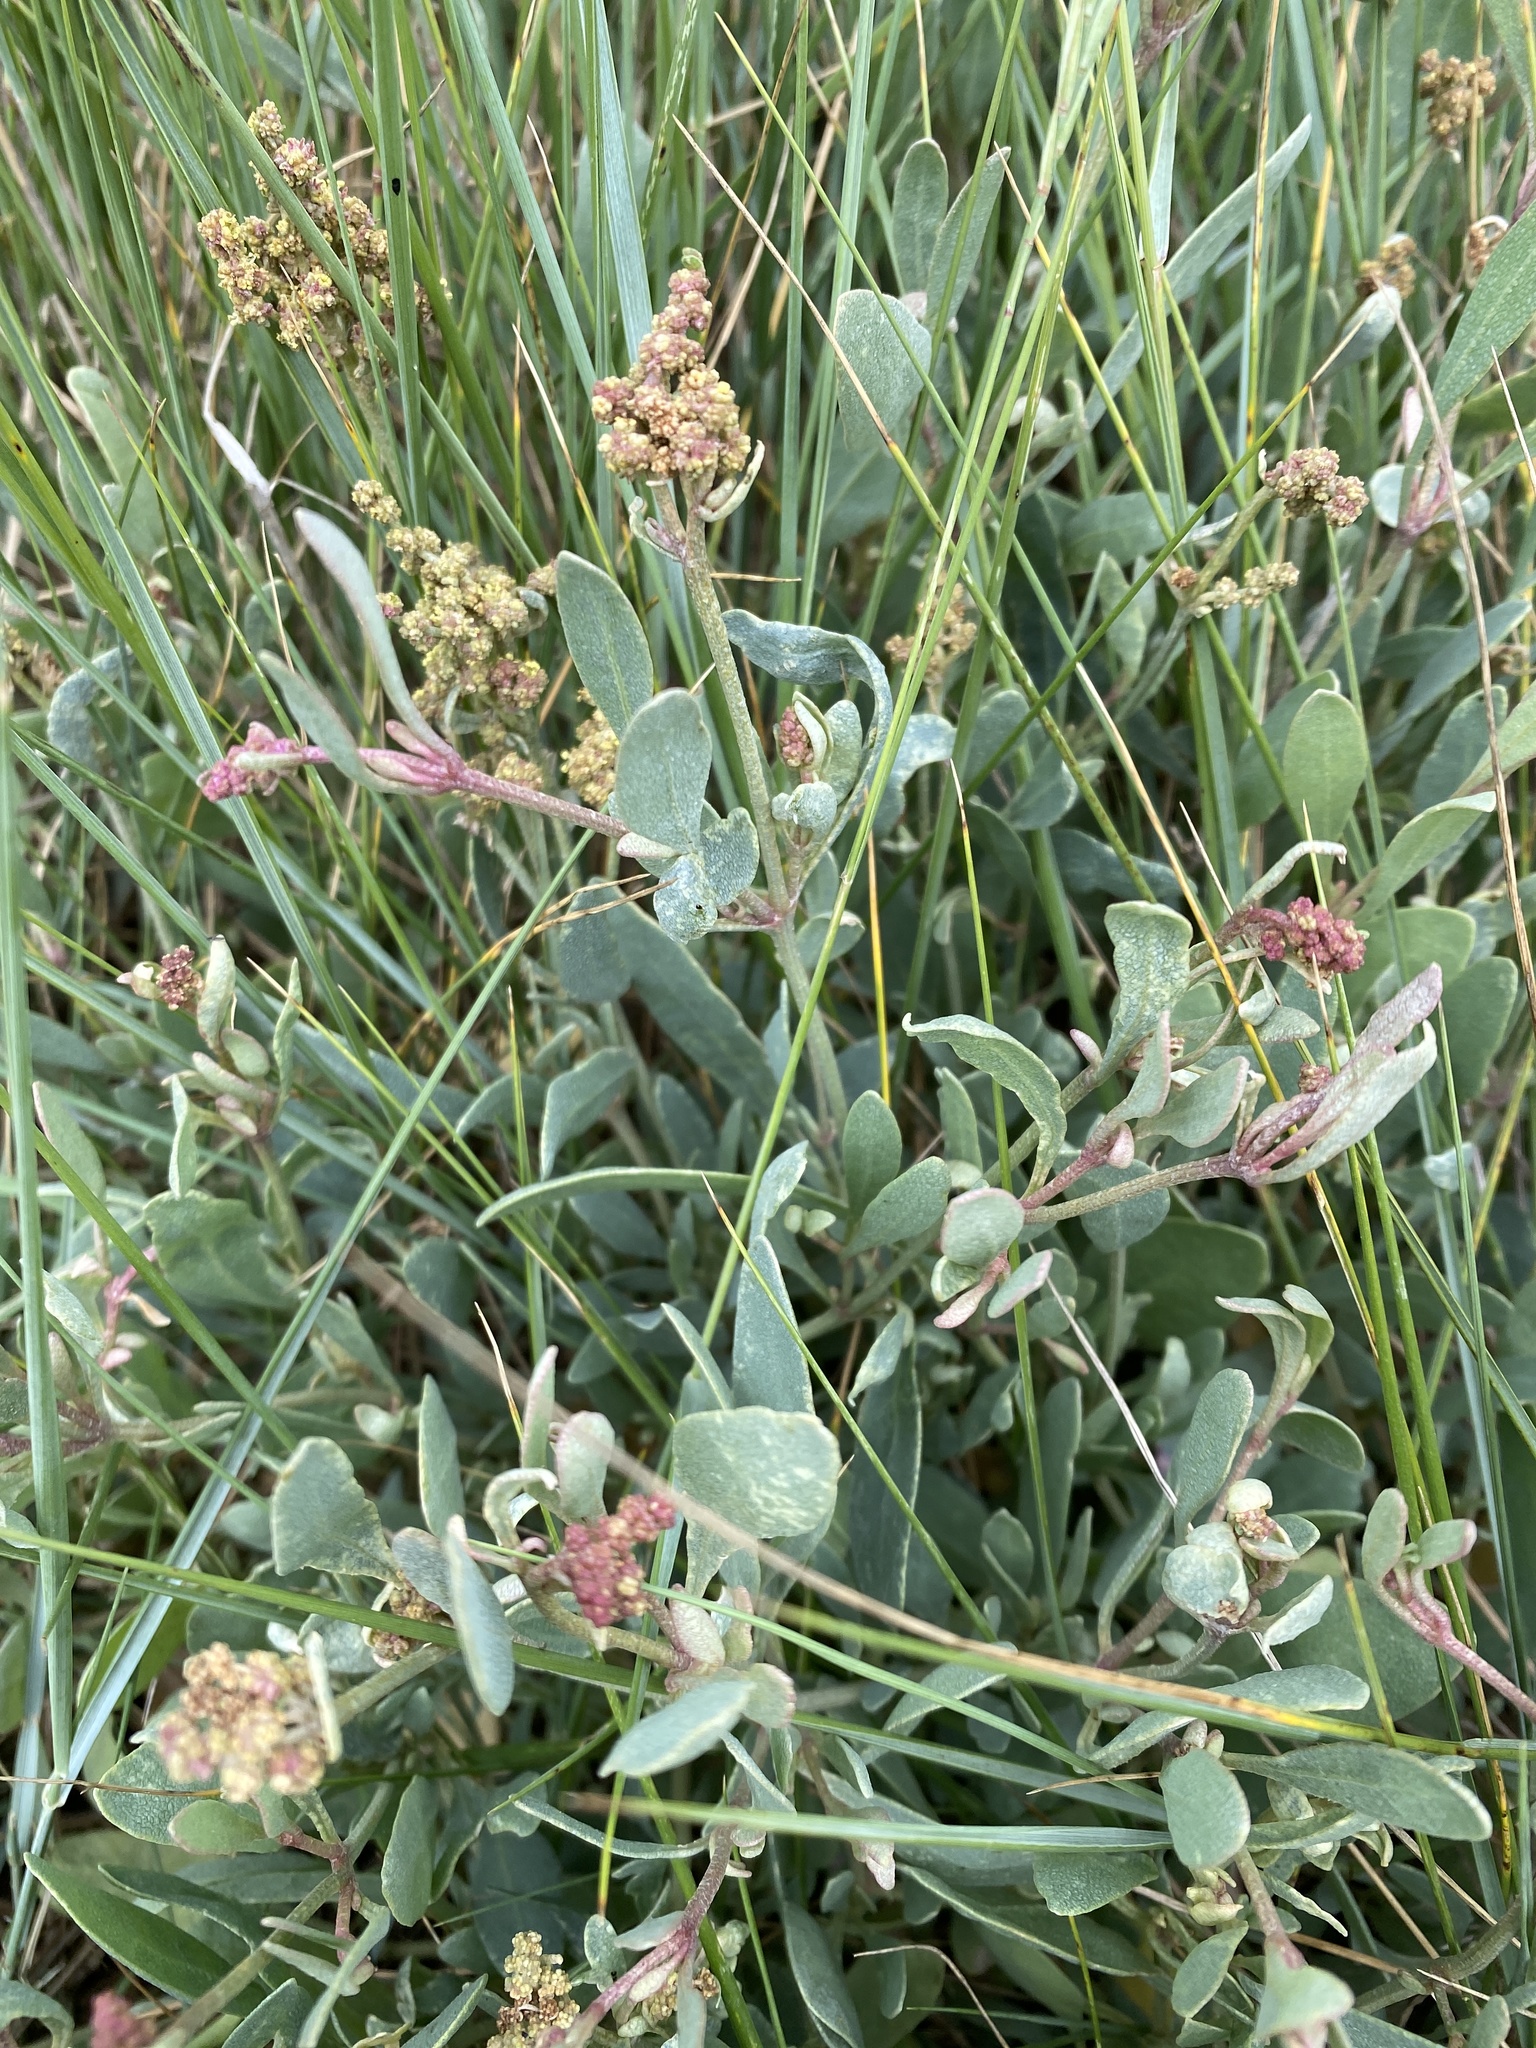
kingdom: Plantae
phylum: Tracheophyta
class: Magnoliopsida
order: Caryophyllales
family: Amaranthaceae
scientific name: Amaranthaceae
